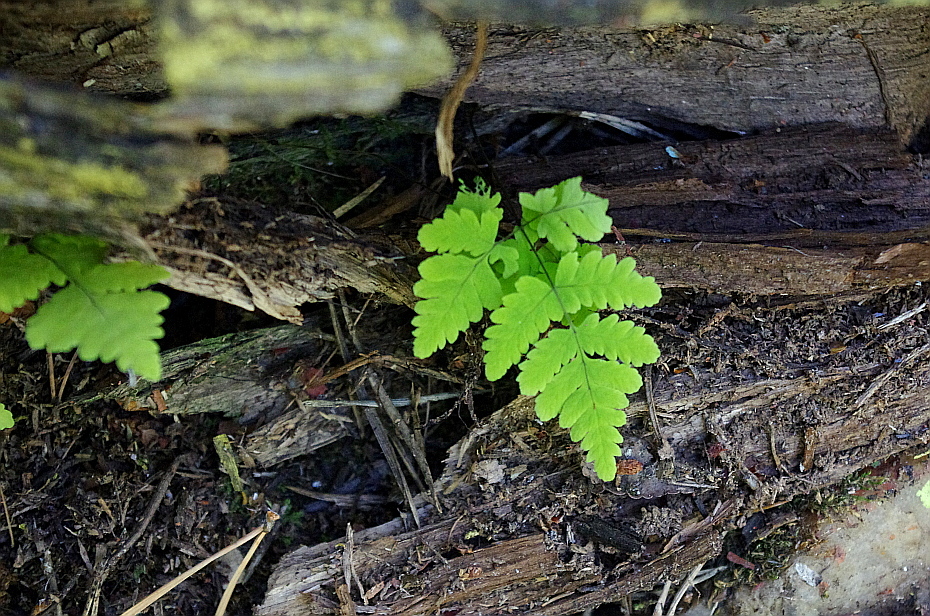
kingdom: Plantae
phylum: Tracheophyta
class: Polypodiopsida
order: Polypodiales
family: Cystopteridaceae
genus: Gymnocarpium
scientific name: Gymnocarpium dryopteris
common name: Oak fern
